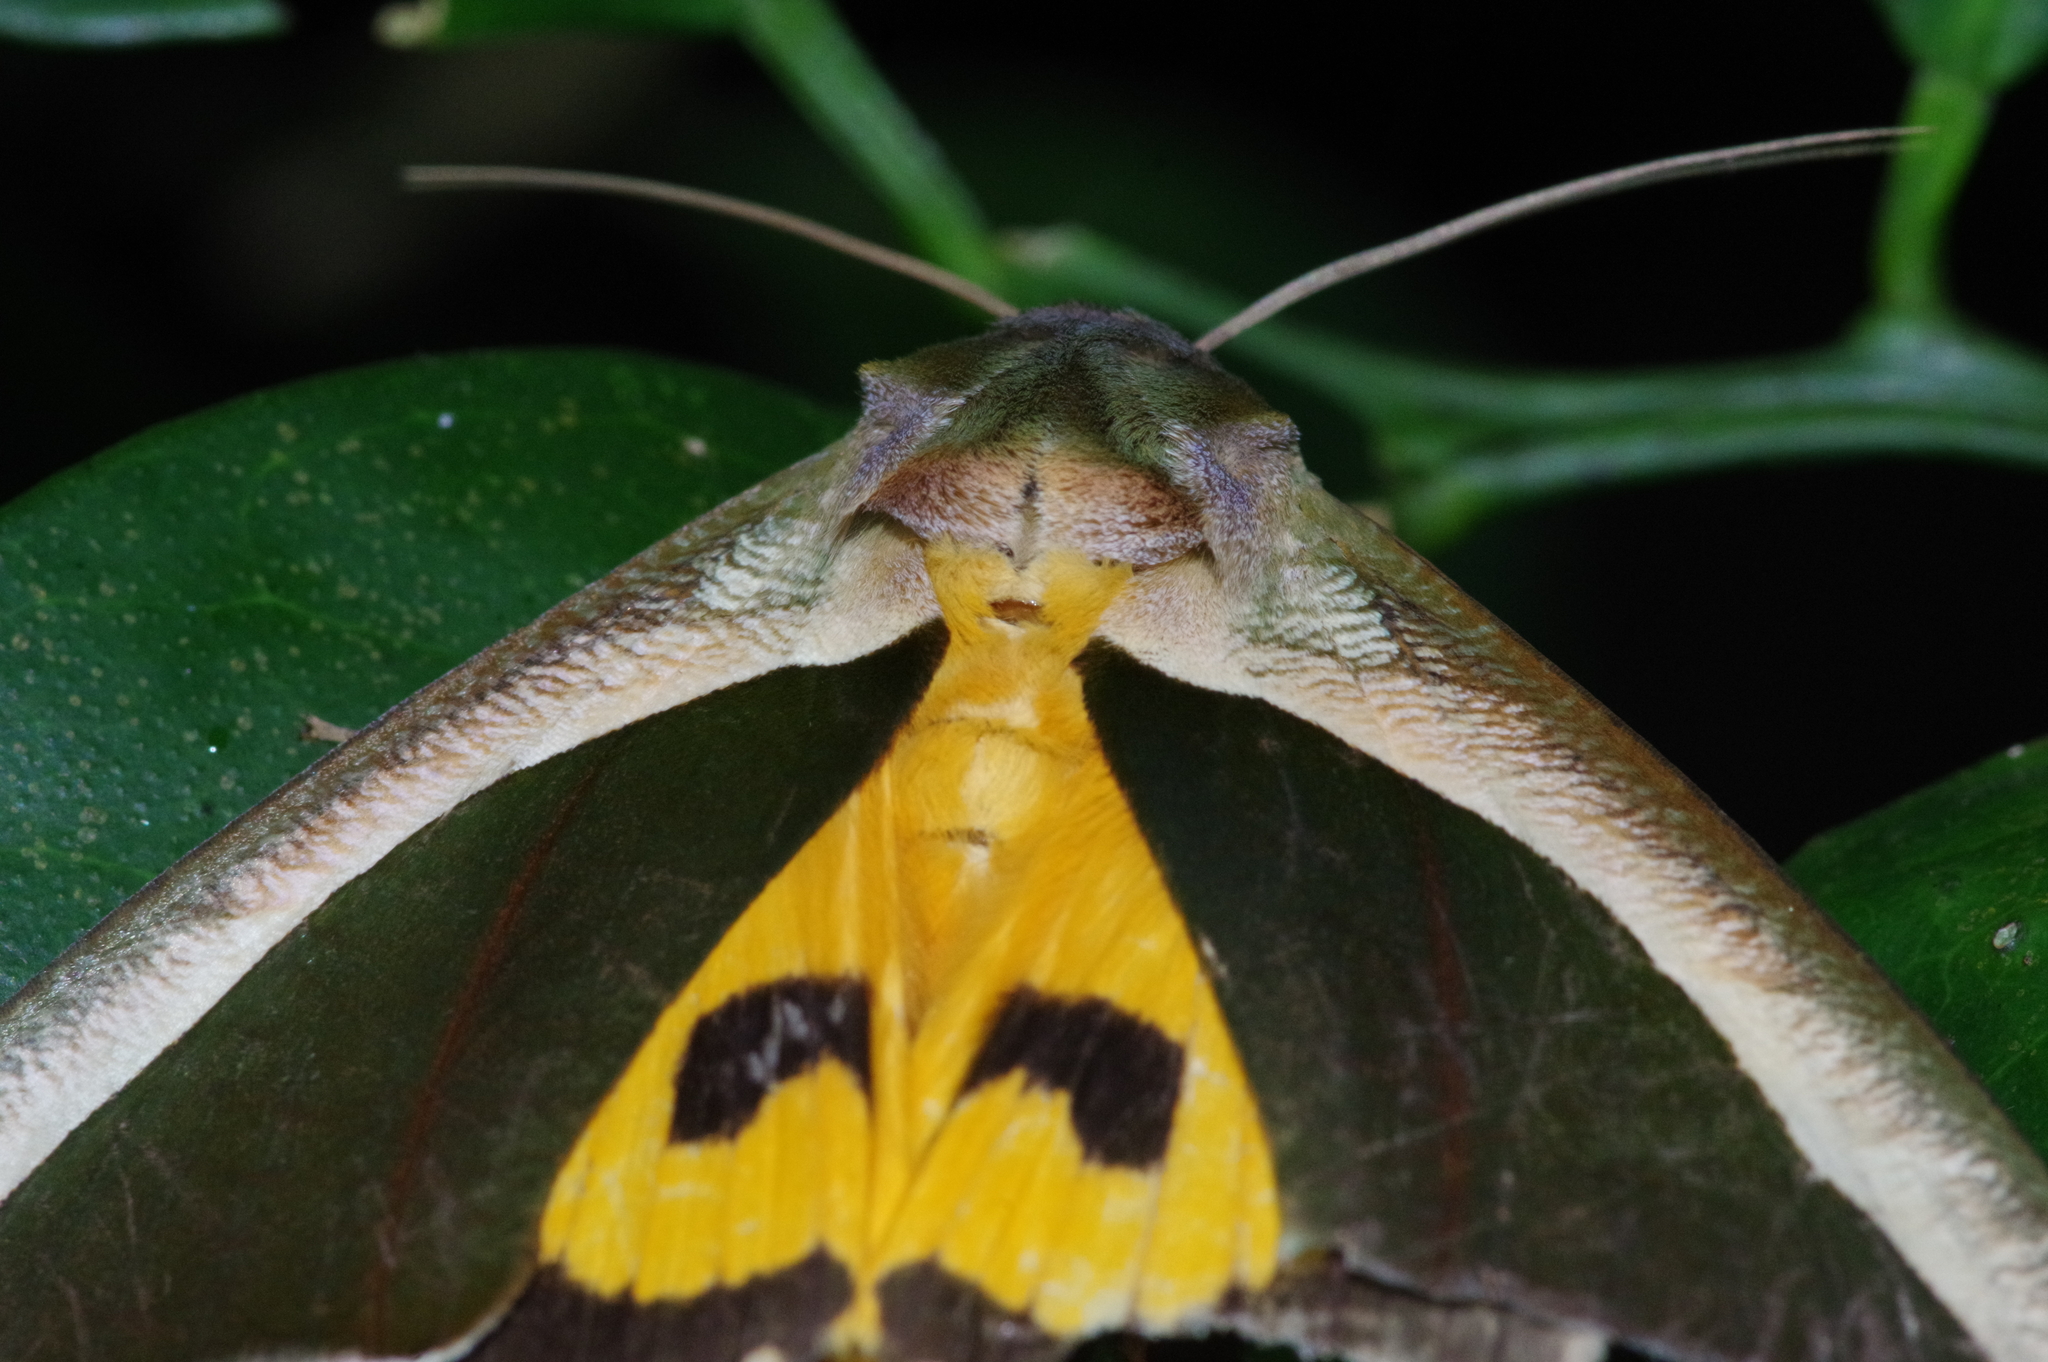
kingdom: Animalia
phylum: Arthropoda
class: Insecta
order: Lepidoptera
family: Erebidae
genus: Eudocima
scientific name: Eudocima salaminia
